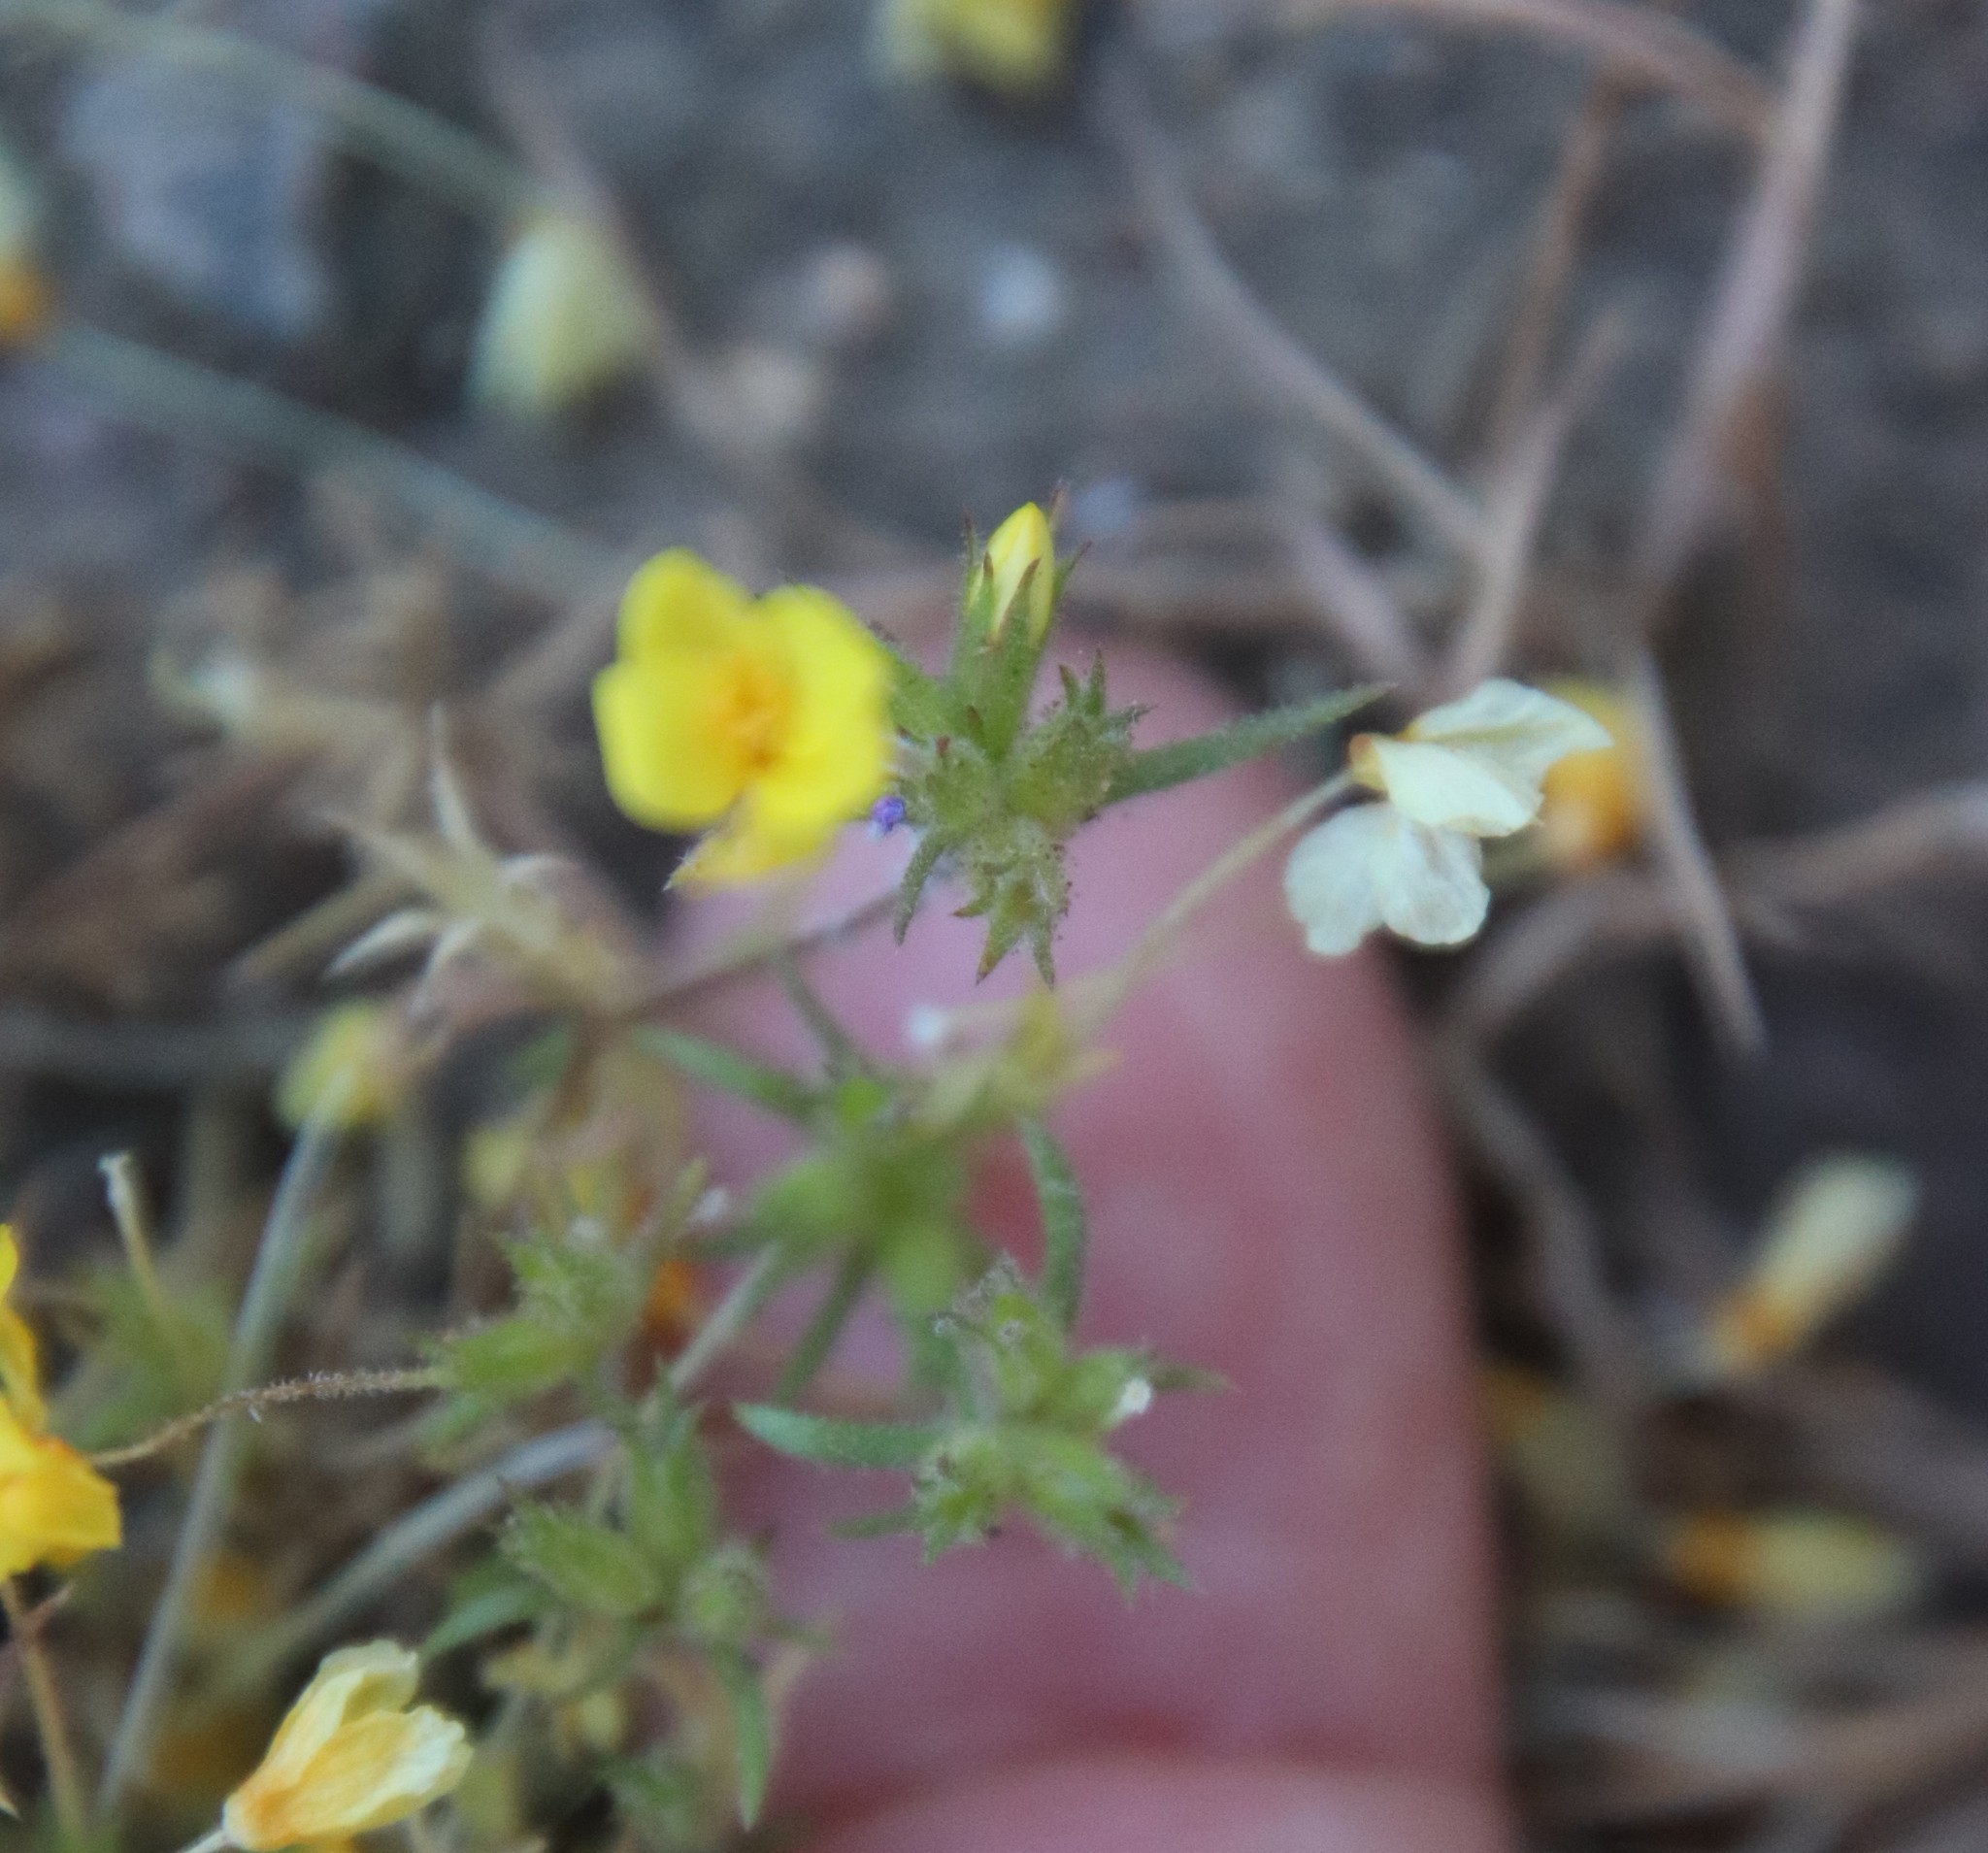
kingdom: Plantae
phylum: Tracheophyta
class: Magnoliopsida
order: Ericales
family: Polemoniaceae
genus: Leptosiphon
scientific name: Leptosiphon parviflorus
